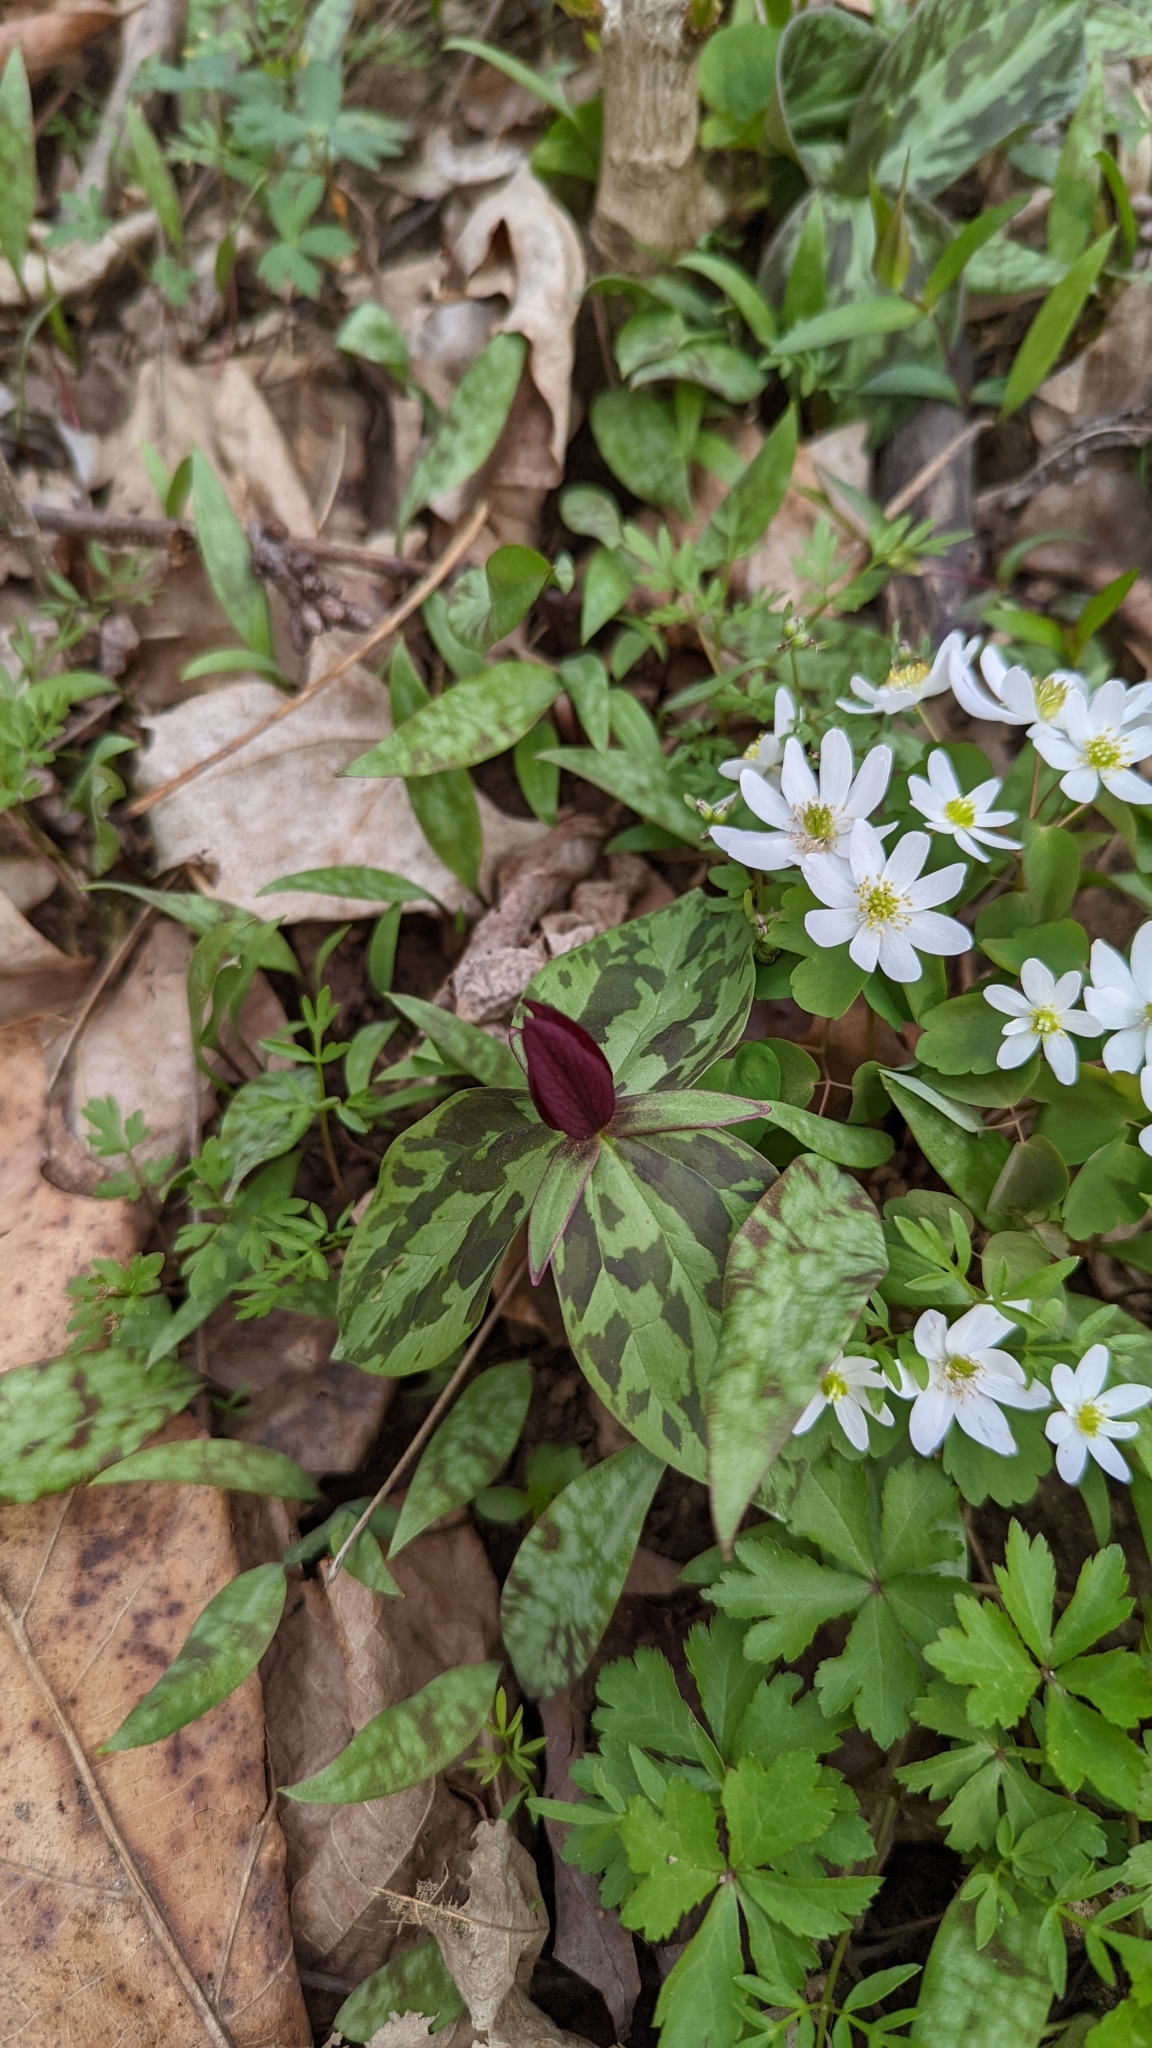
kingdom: Plantae
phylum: Tracheophyta
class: Liliopsida
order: Liliales
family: Melanthiaceae
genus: Trillium
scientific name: Trillium sessile
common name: Sessile trillium
